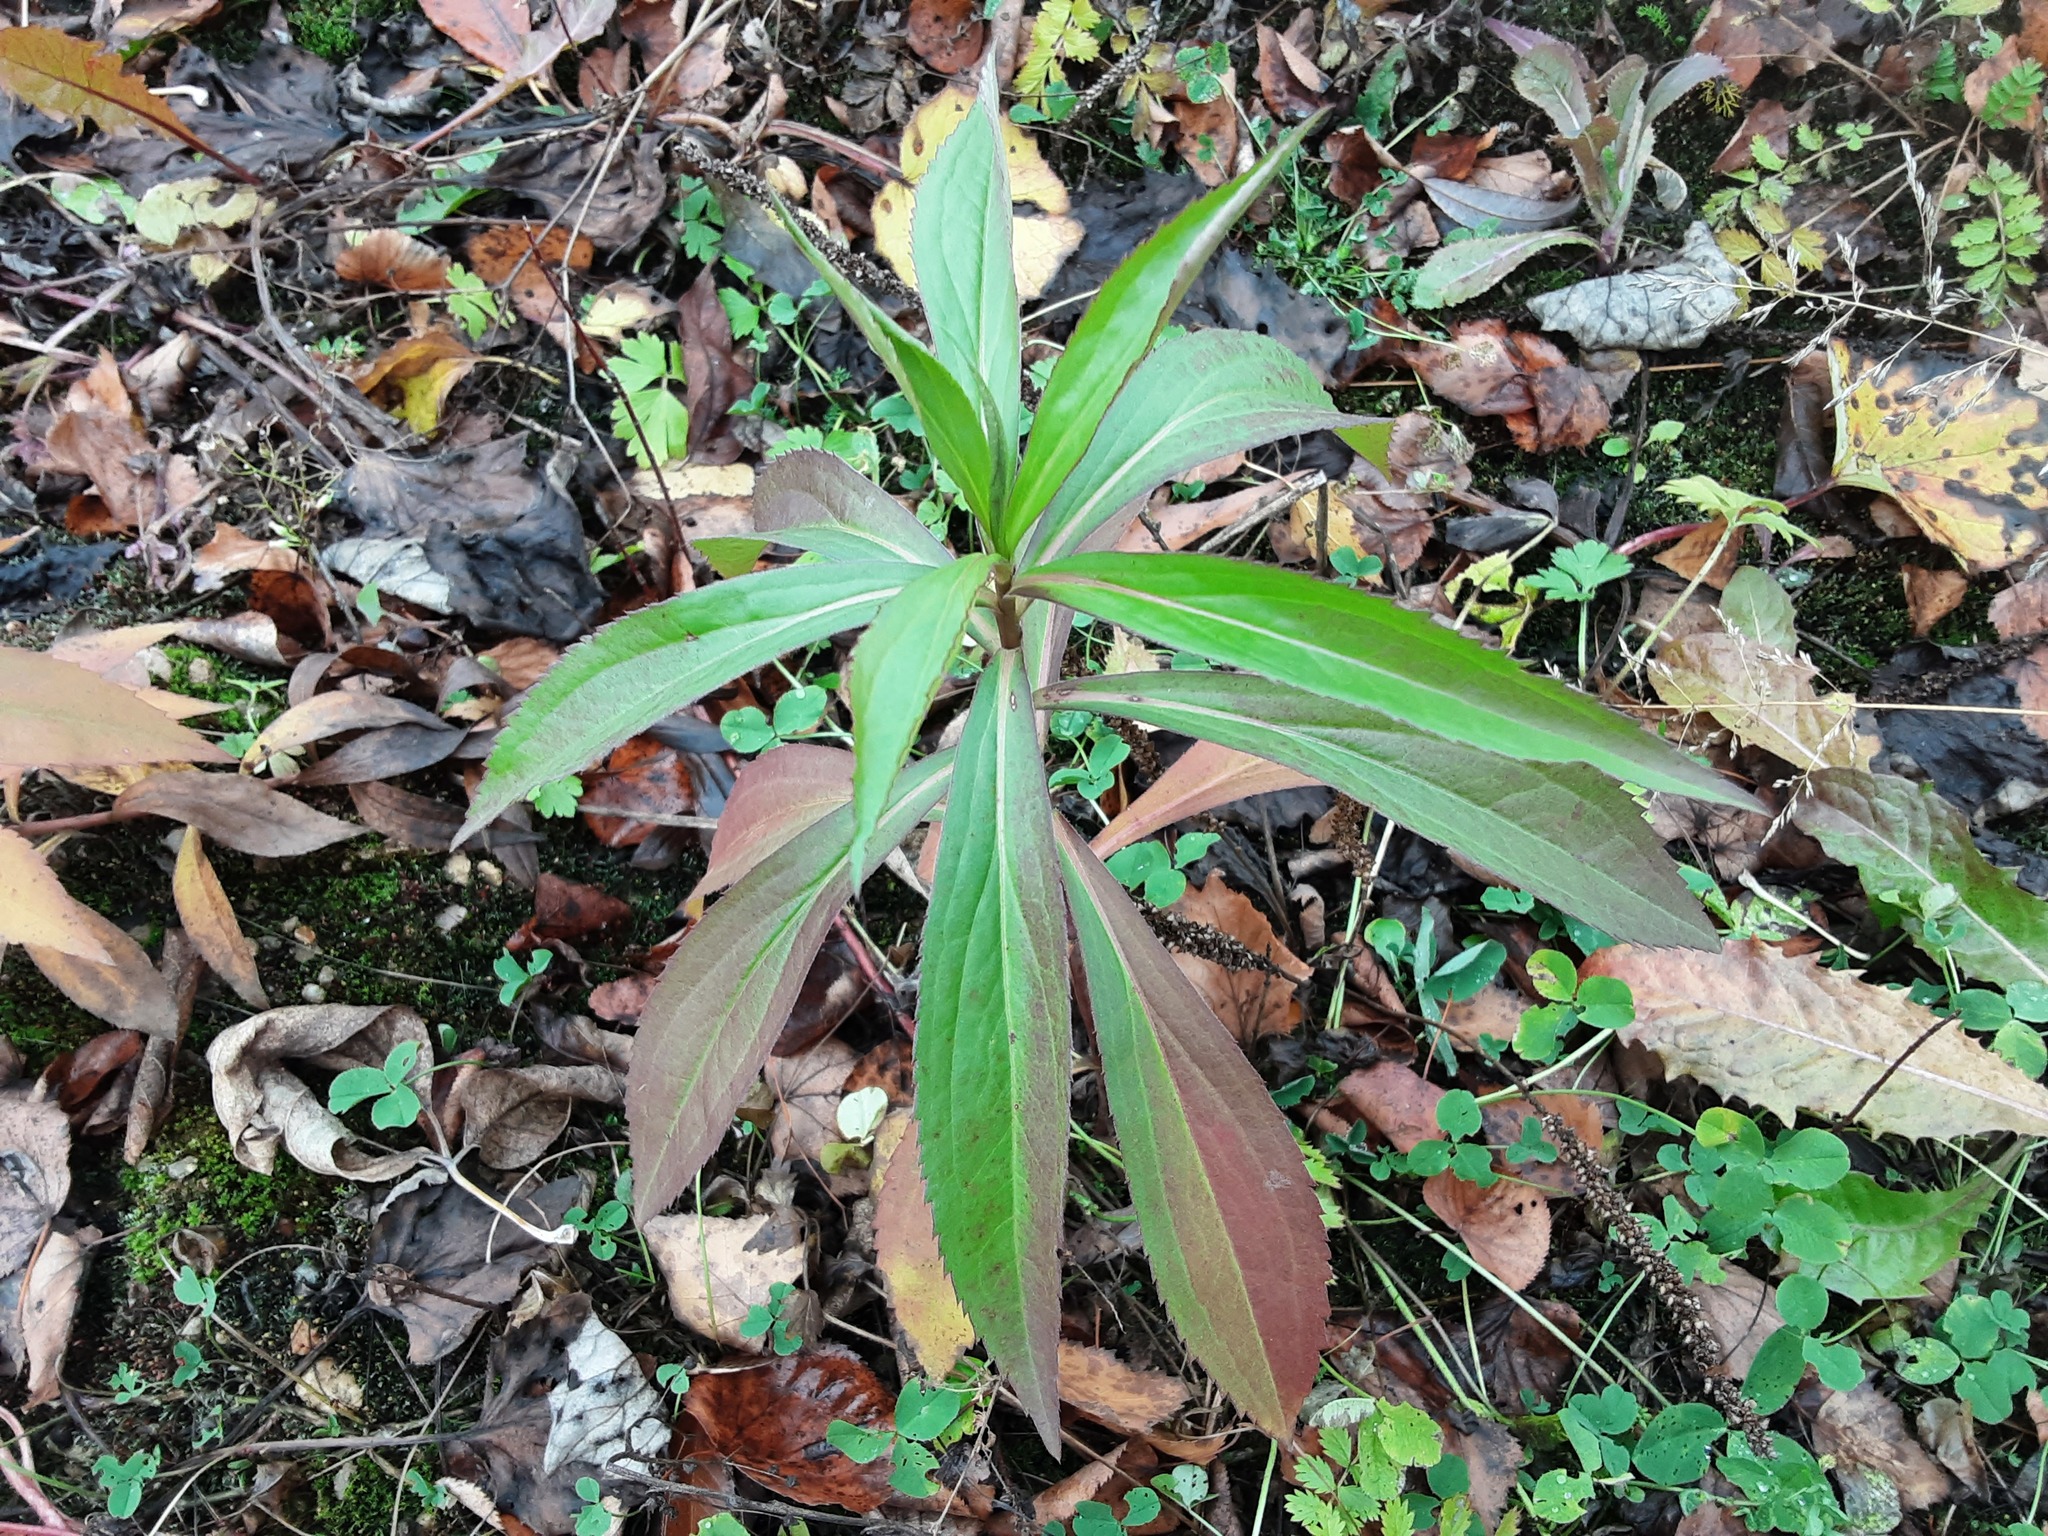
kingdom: Plantae
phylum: Tracheophyta
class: Magnoliopsida
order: Asterales
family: Asteraceae
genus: Solidago
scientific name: Solidago gigantea
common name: Giant goldenrod
